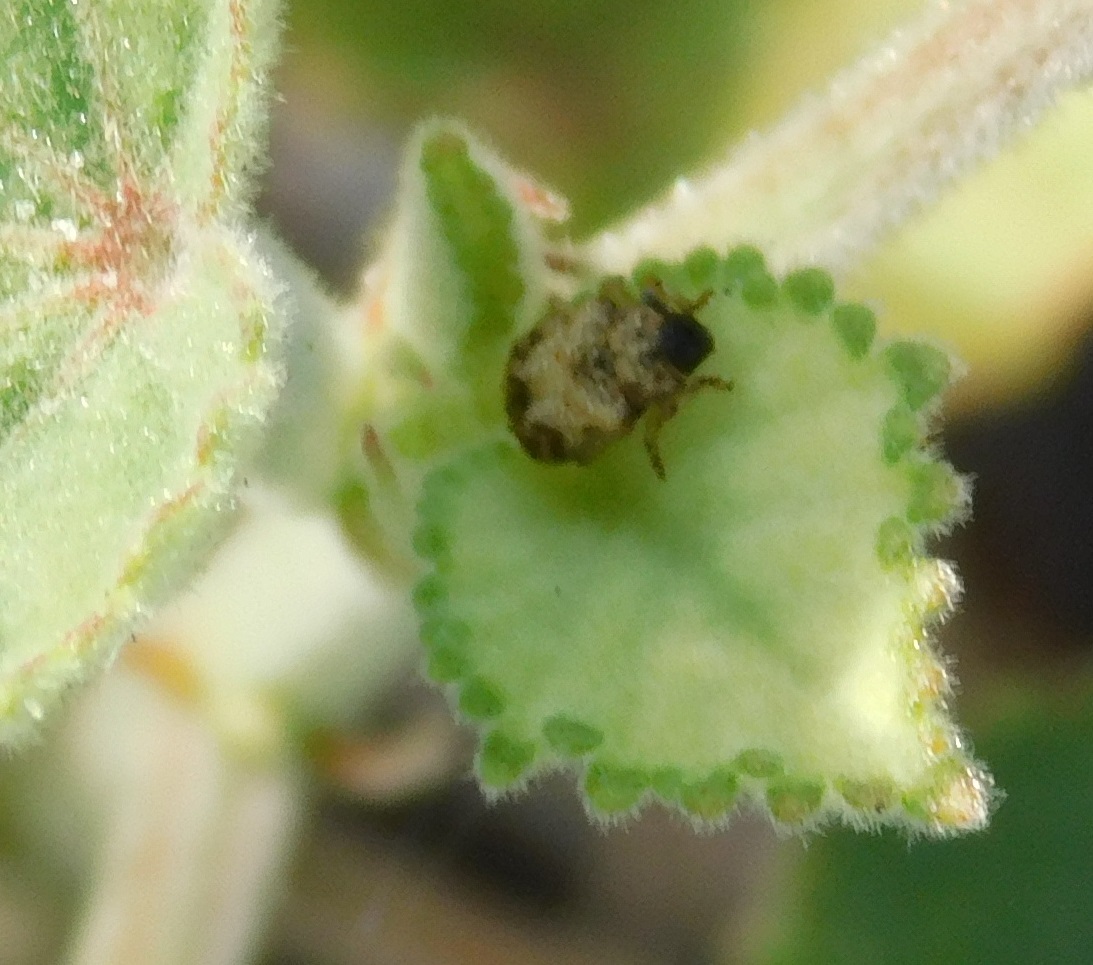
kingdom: Animalia
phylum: Arthropoda
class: Insecta
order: Coleoptera
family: Chrysomelidae
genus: Brachycoryna
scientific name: Brachycoryna pumila
